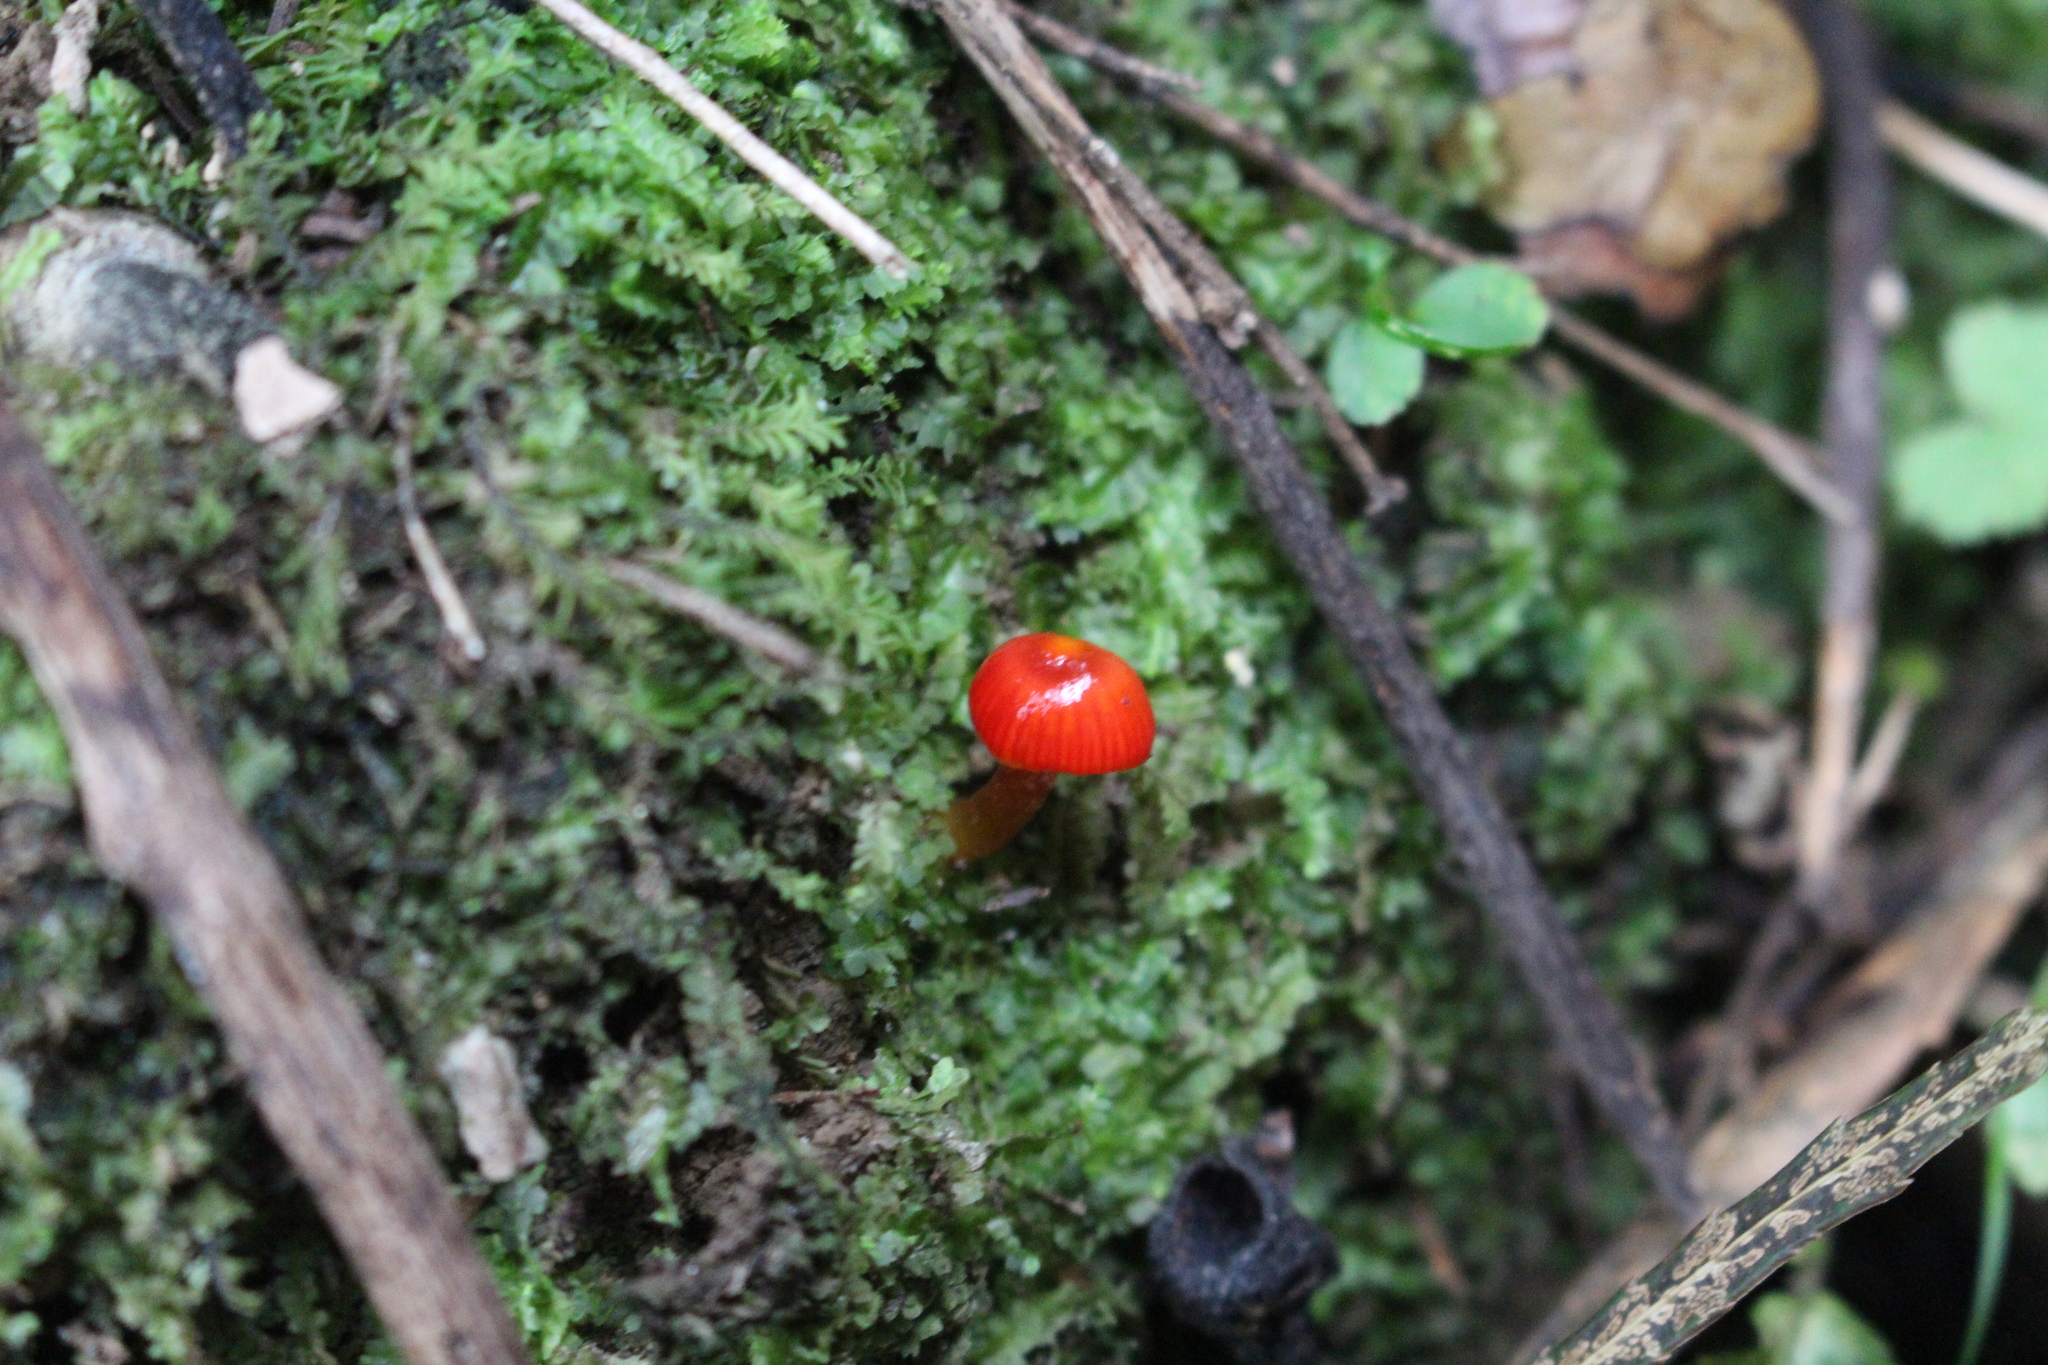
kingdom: Fungi
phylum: Basidiomycota
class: Agaricomycetes
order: Agaricales
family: Mycenaceae
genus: Cruentomycena
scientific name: Cruentomycena viscidocruenta
